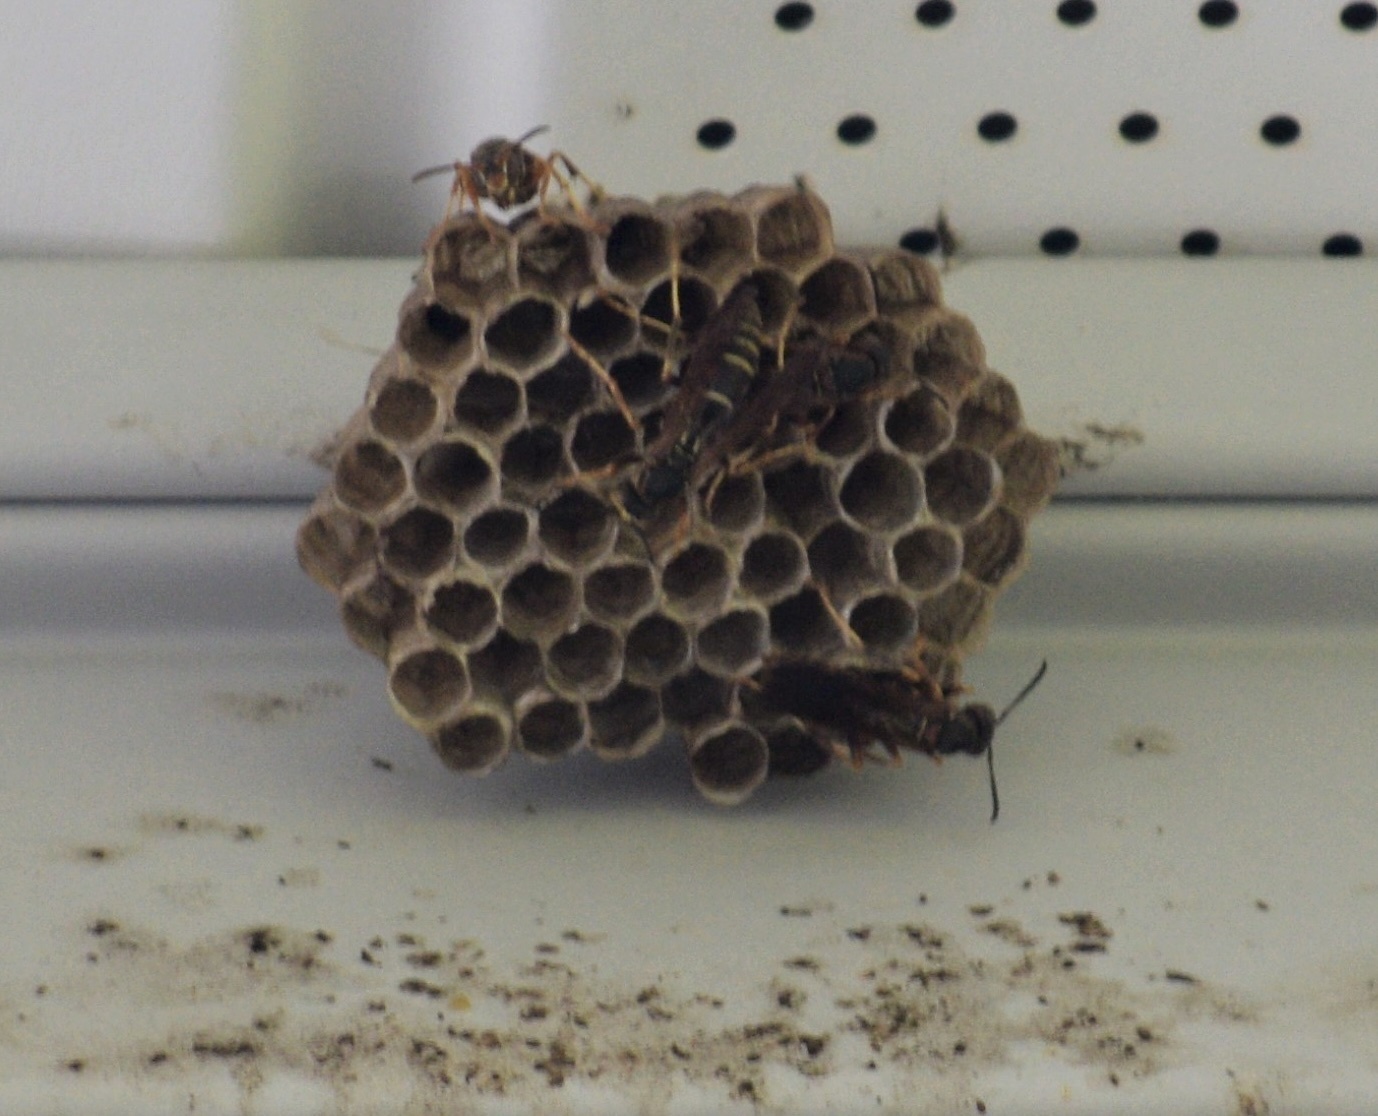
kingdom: Animalia
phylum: Arthropoda
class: Insecta
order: Hymenoptera
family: Eumenidae
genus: Polistes
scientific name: Polistes fuscatus
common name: Dark paper wasp
